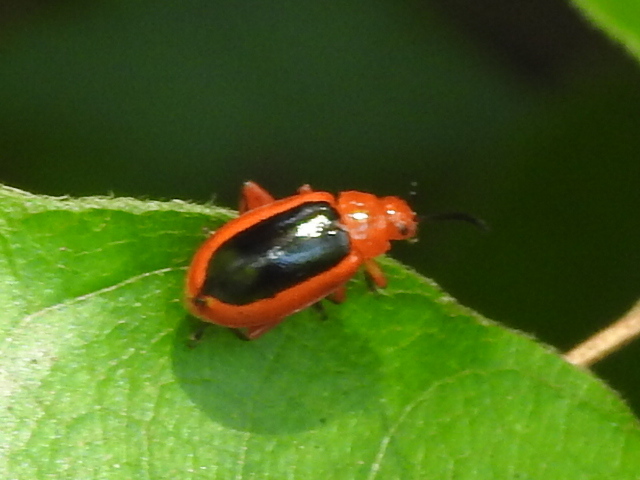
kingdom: Animalia
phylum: Arthropoda
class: Insecta
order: Coleoptera
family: Chrysomelidae
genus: Disonycha
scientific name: Disonycha discoidea
